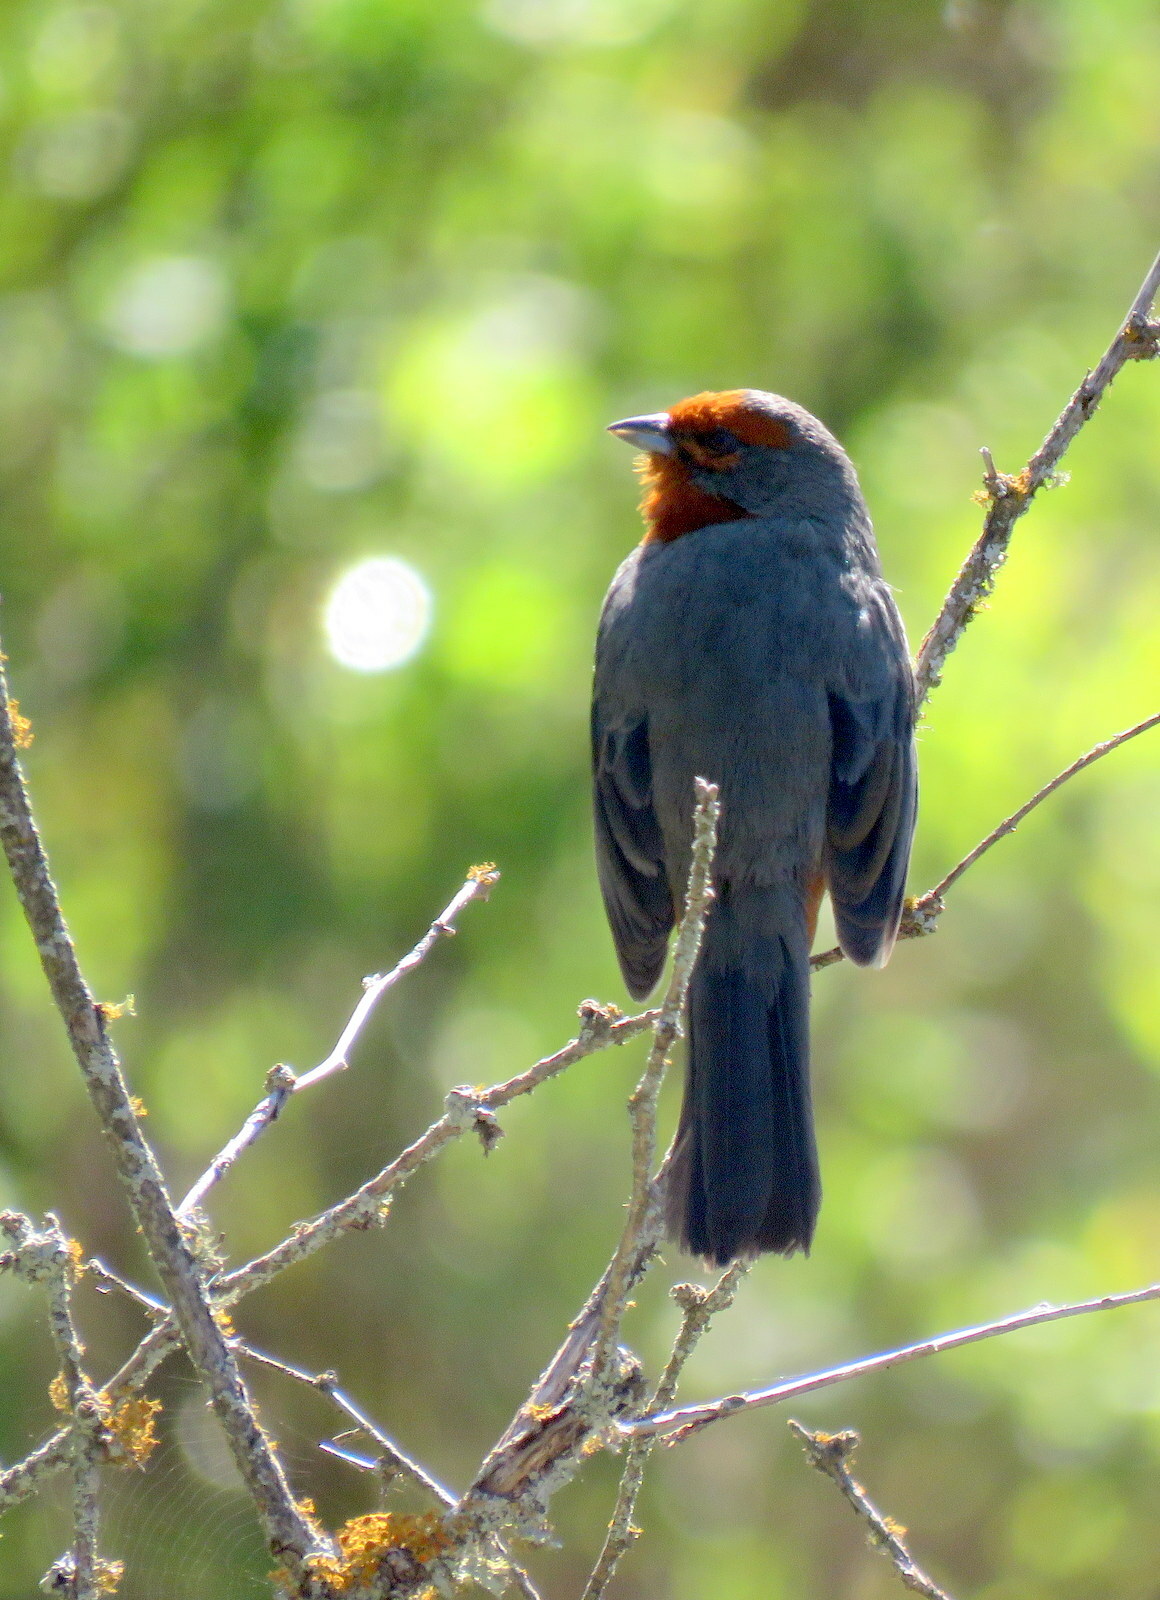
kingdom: Animalia
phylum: Chordata
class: Aves
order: Passeriformes
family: Thraupidae
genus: Poospiza
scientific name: Poospiza baeri
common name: Tucuman mountain-finch
